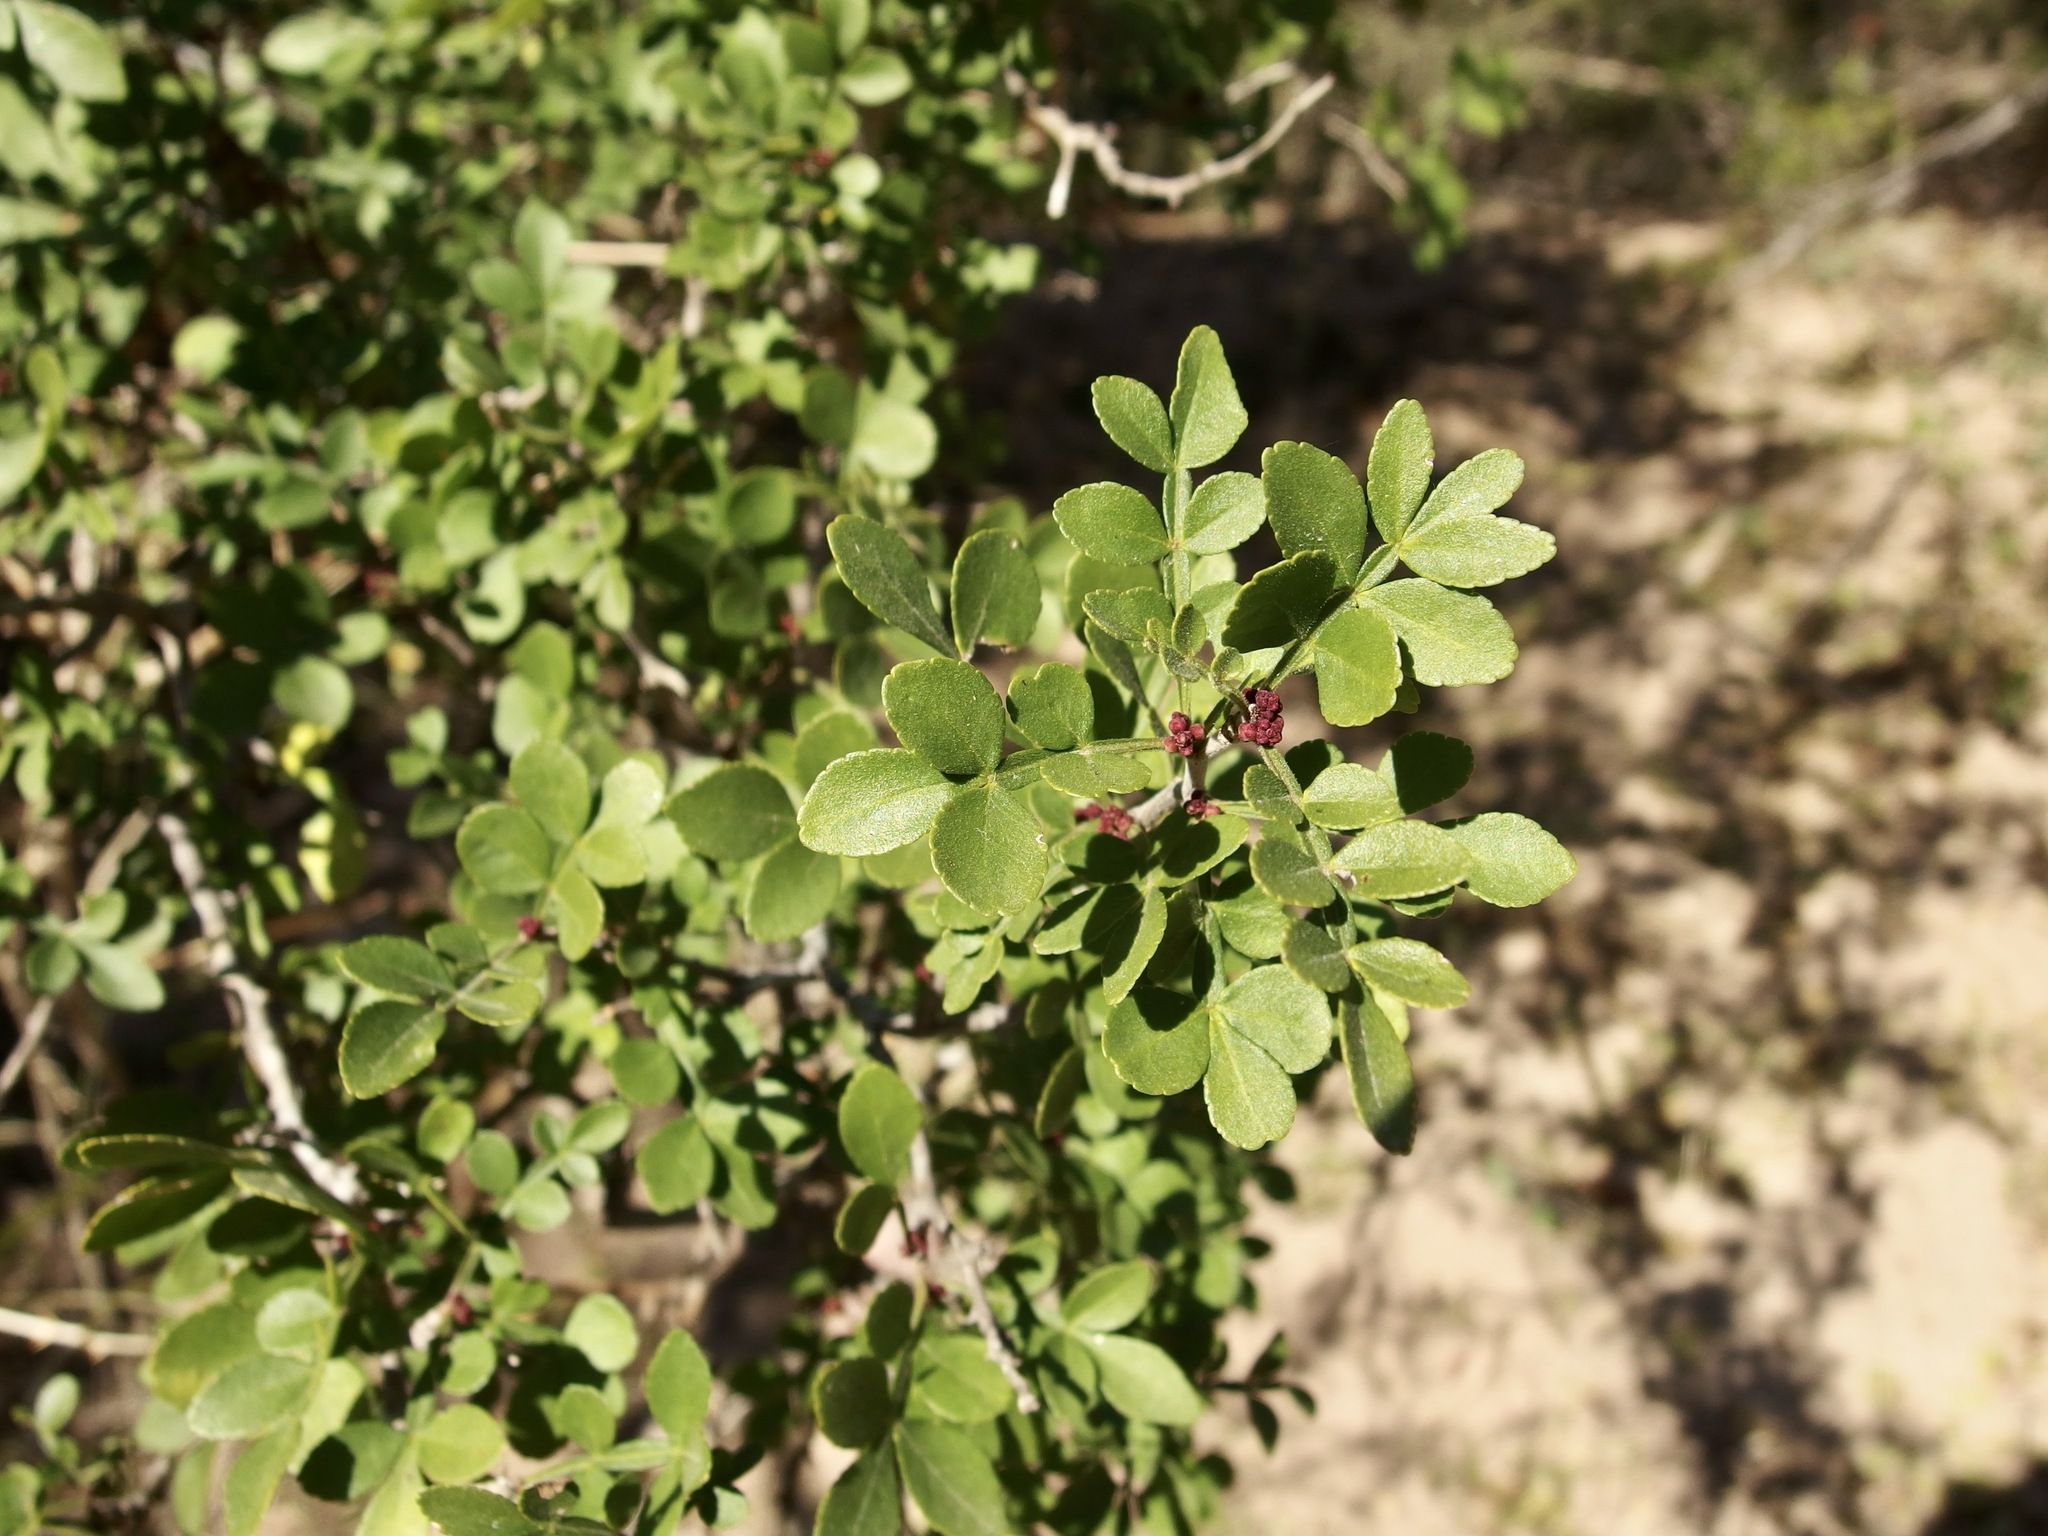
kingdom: Plantae
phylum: Tracheophyta
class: Magnoliopsida
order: Sapindales
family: Rutaceae
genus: Zanthoxylum
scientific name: Zanthoxylum fagara
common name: Lime prickly-ash
